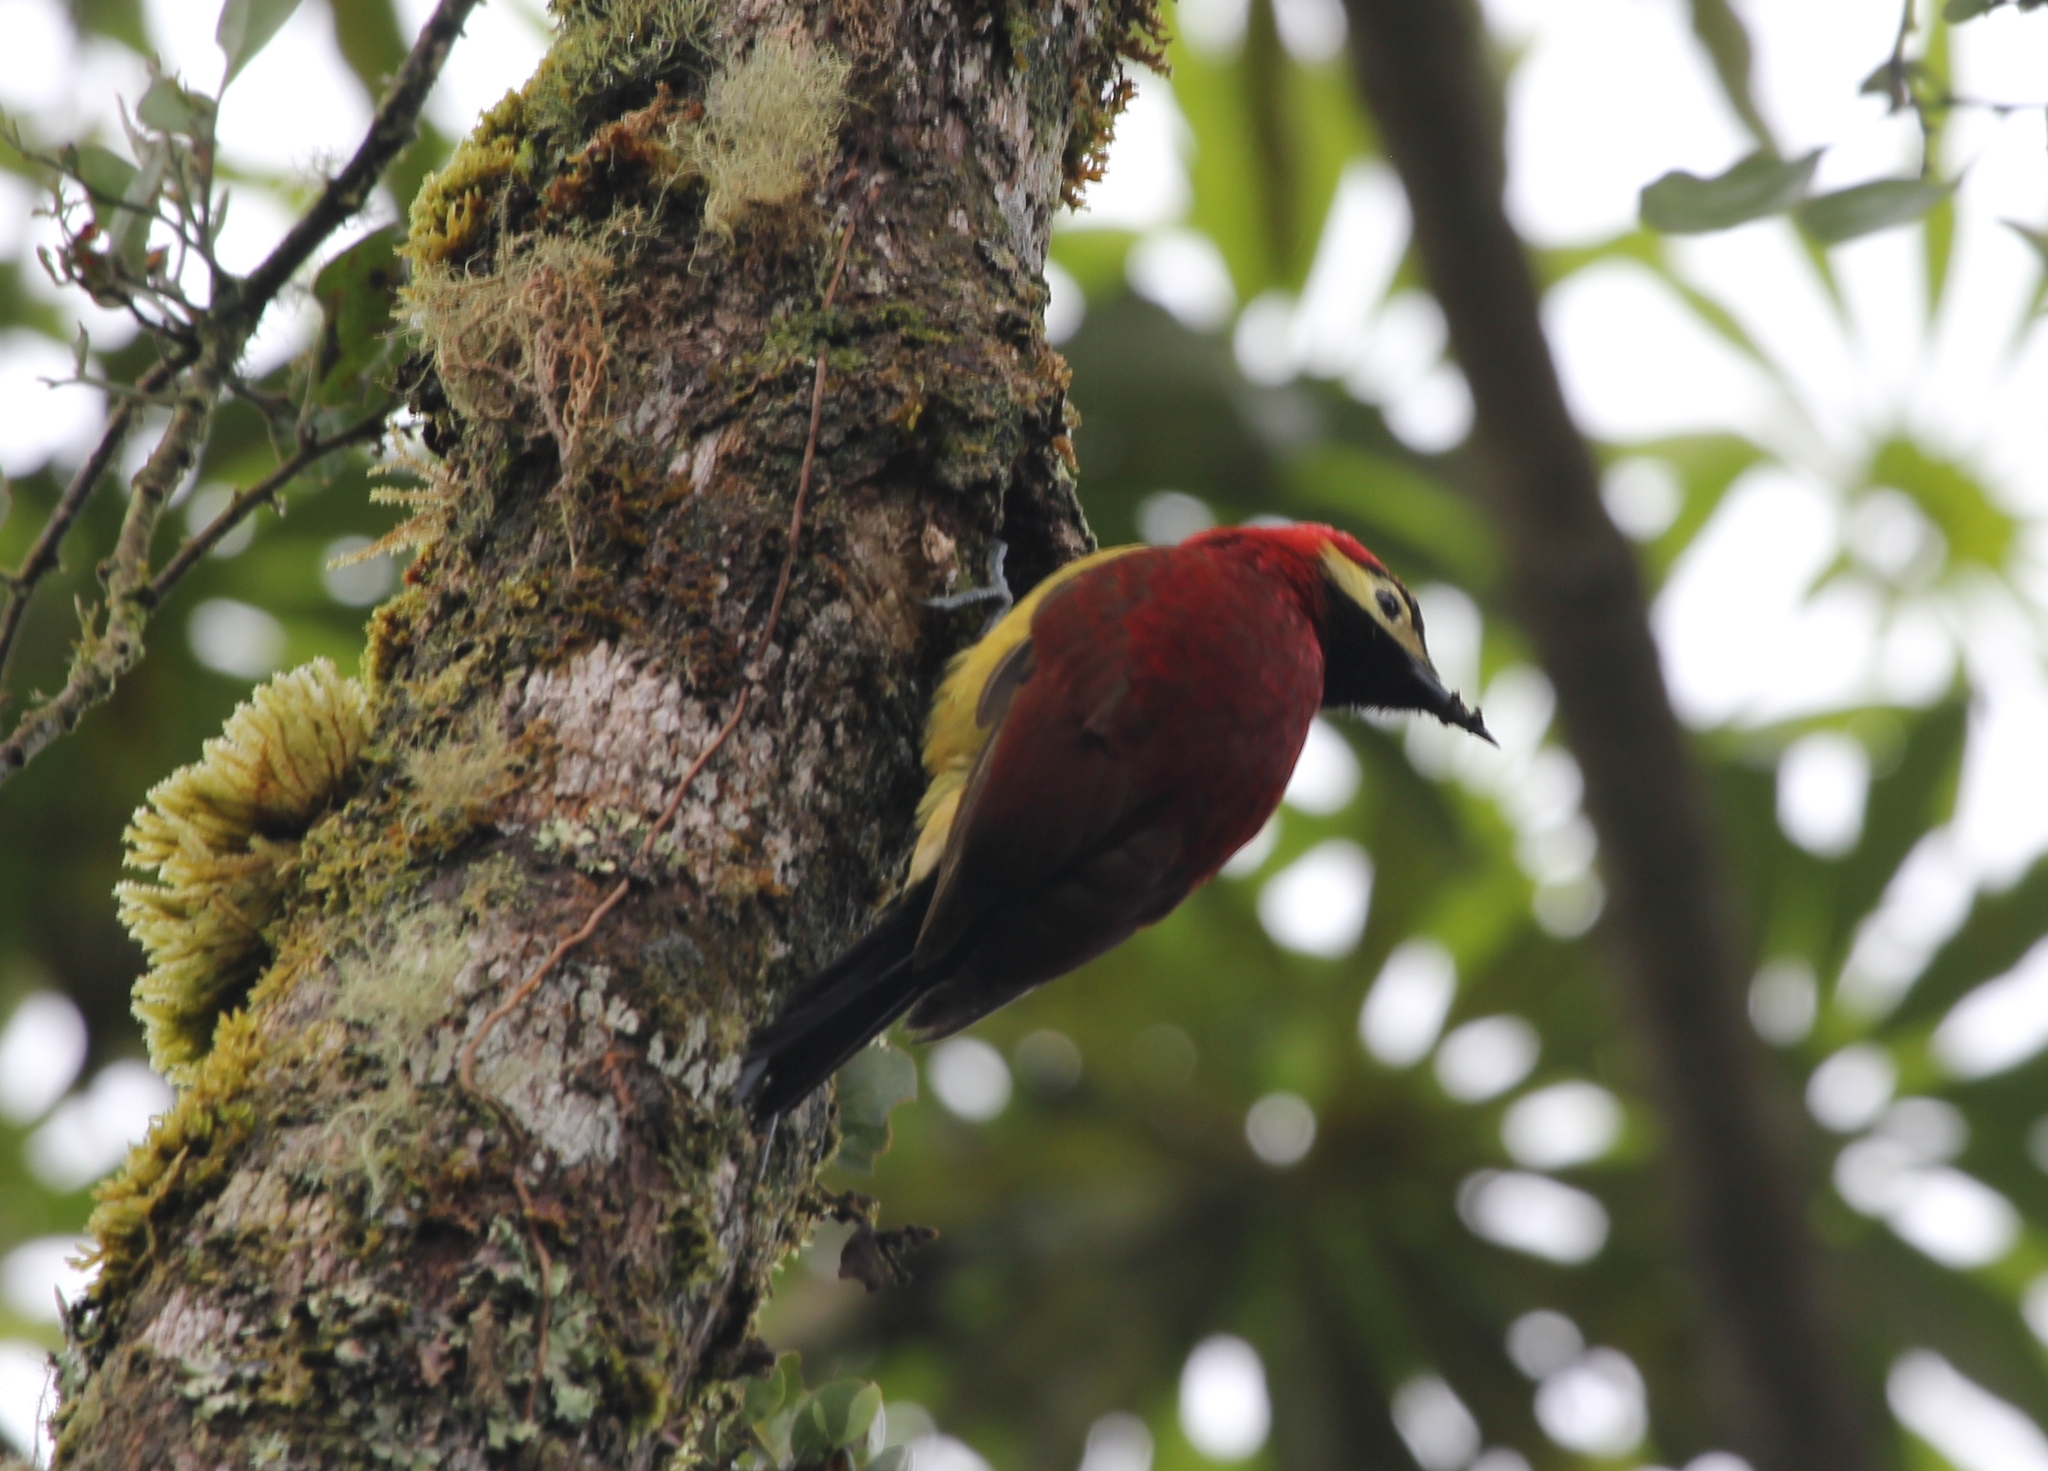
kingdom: Animalia
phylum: Chordata
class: Aves
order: Piciformes
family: Picidae
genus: Colaptes
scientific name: Colaptes rivolii
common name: Crimson-mantled woodpecker
